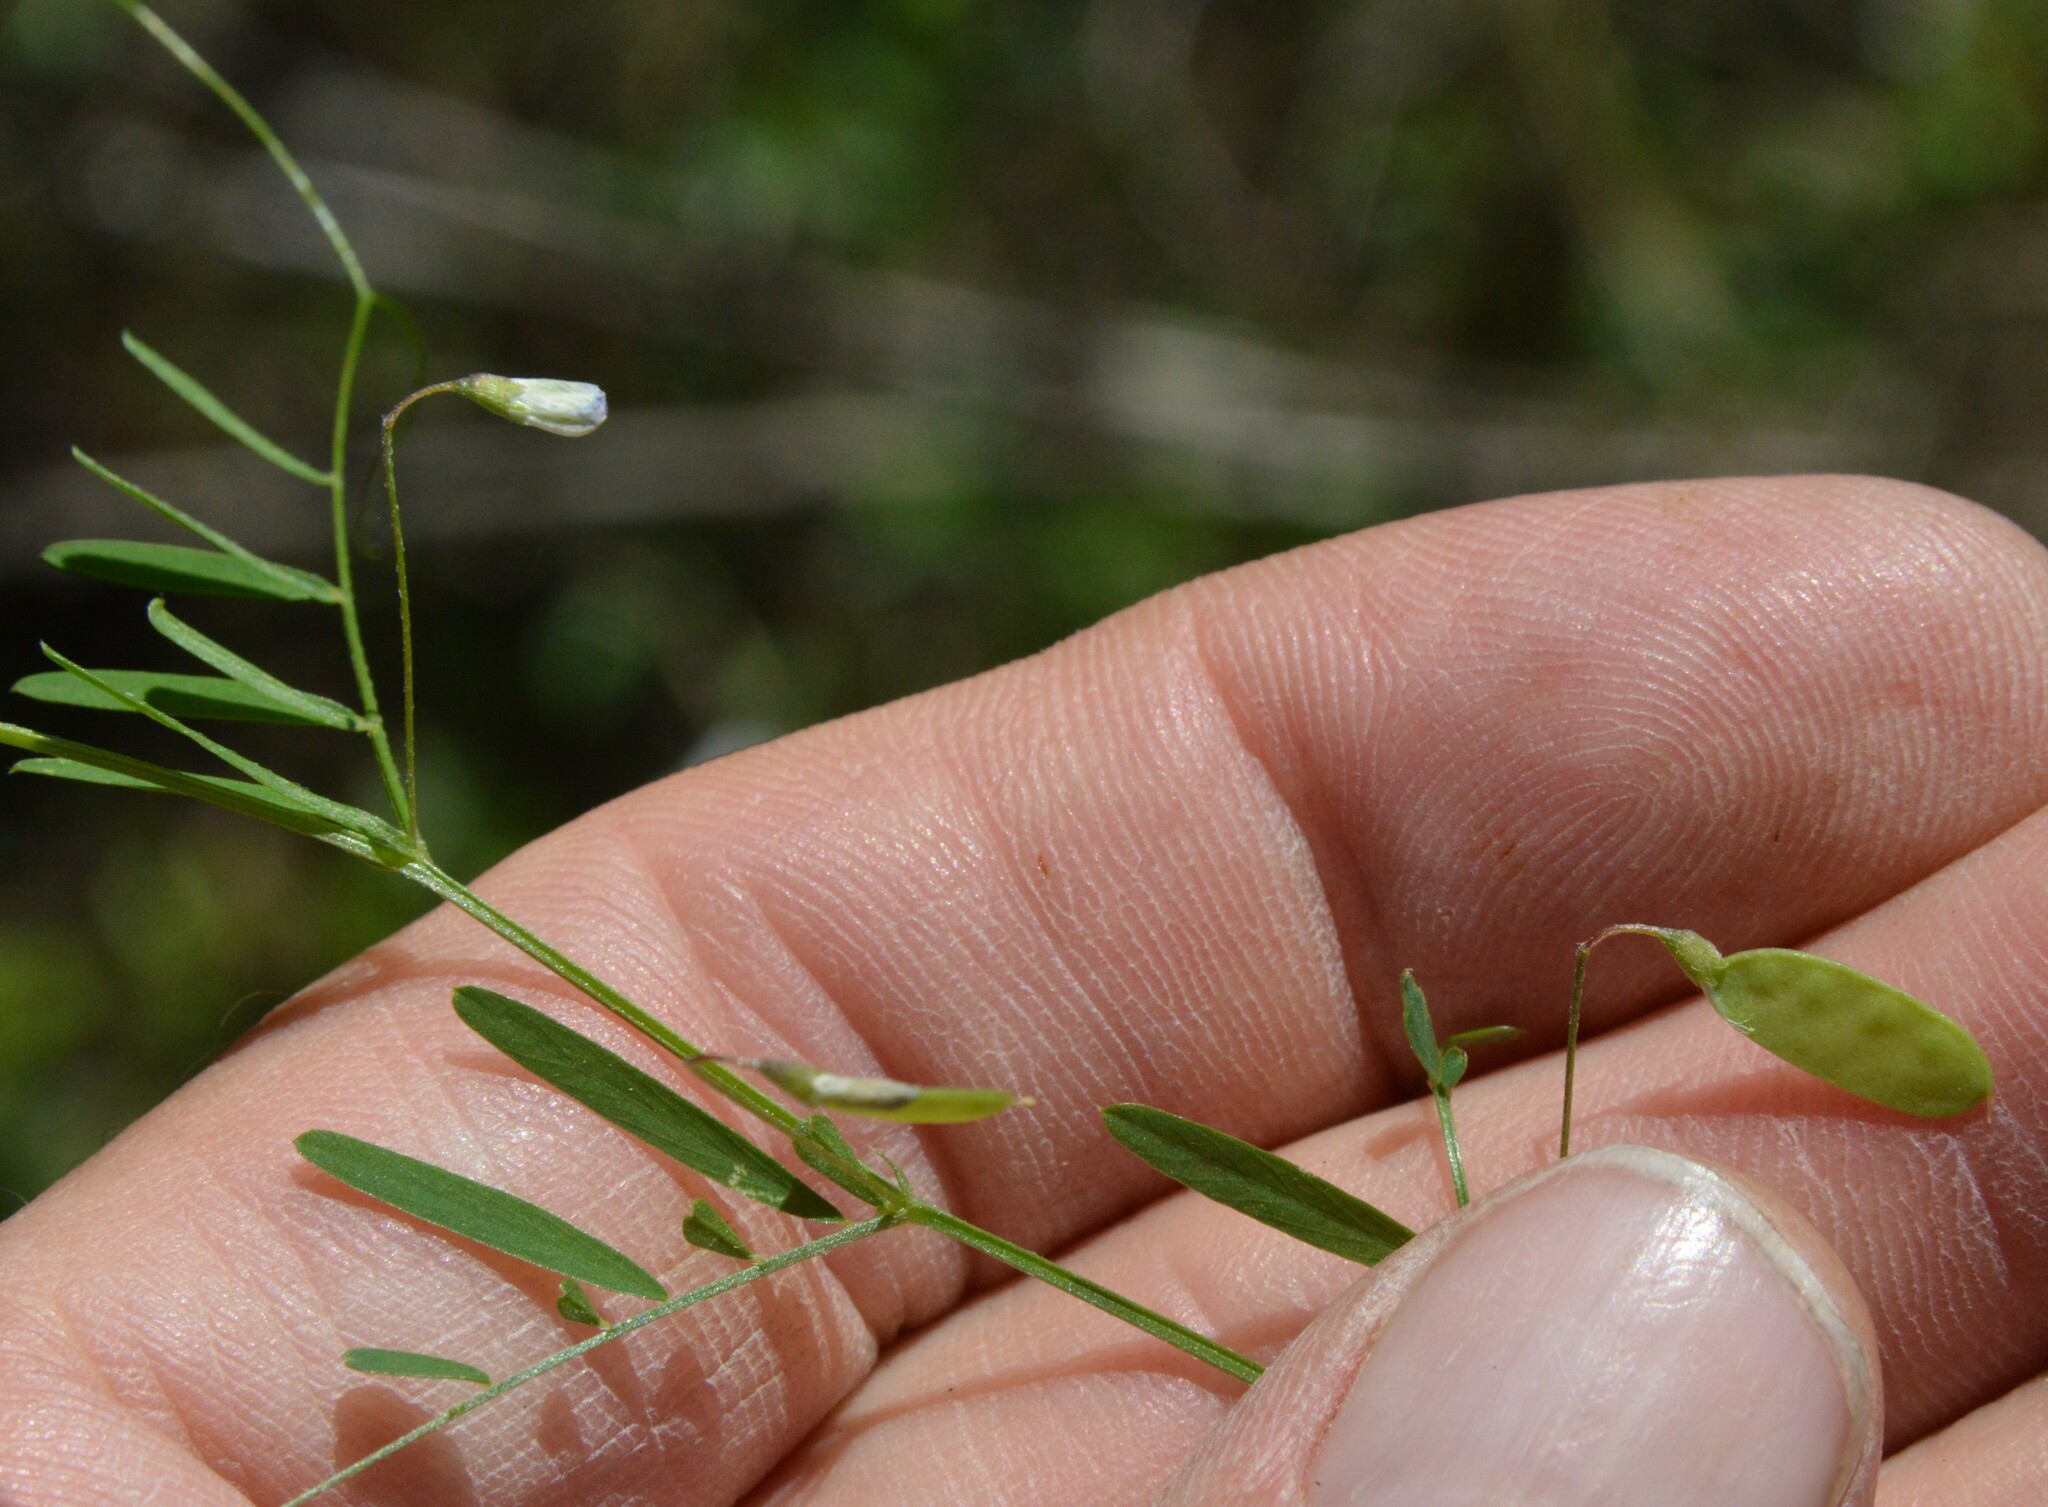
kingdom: Plantae
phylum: Tracheophyta
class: Magnoliopsida
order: Fabales
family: Fabaceae
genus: Vicia
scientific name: Vicia tetrasperma
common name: Smooth tare
